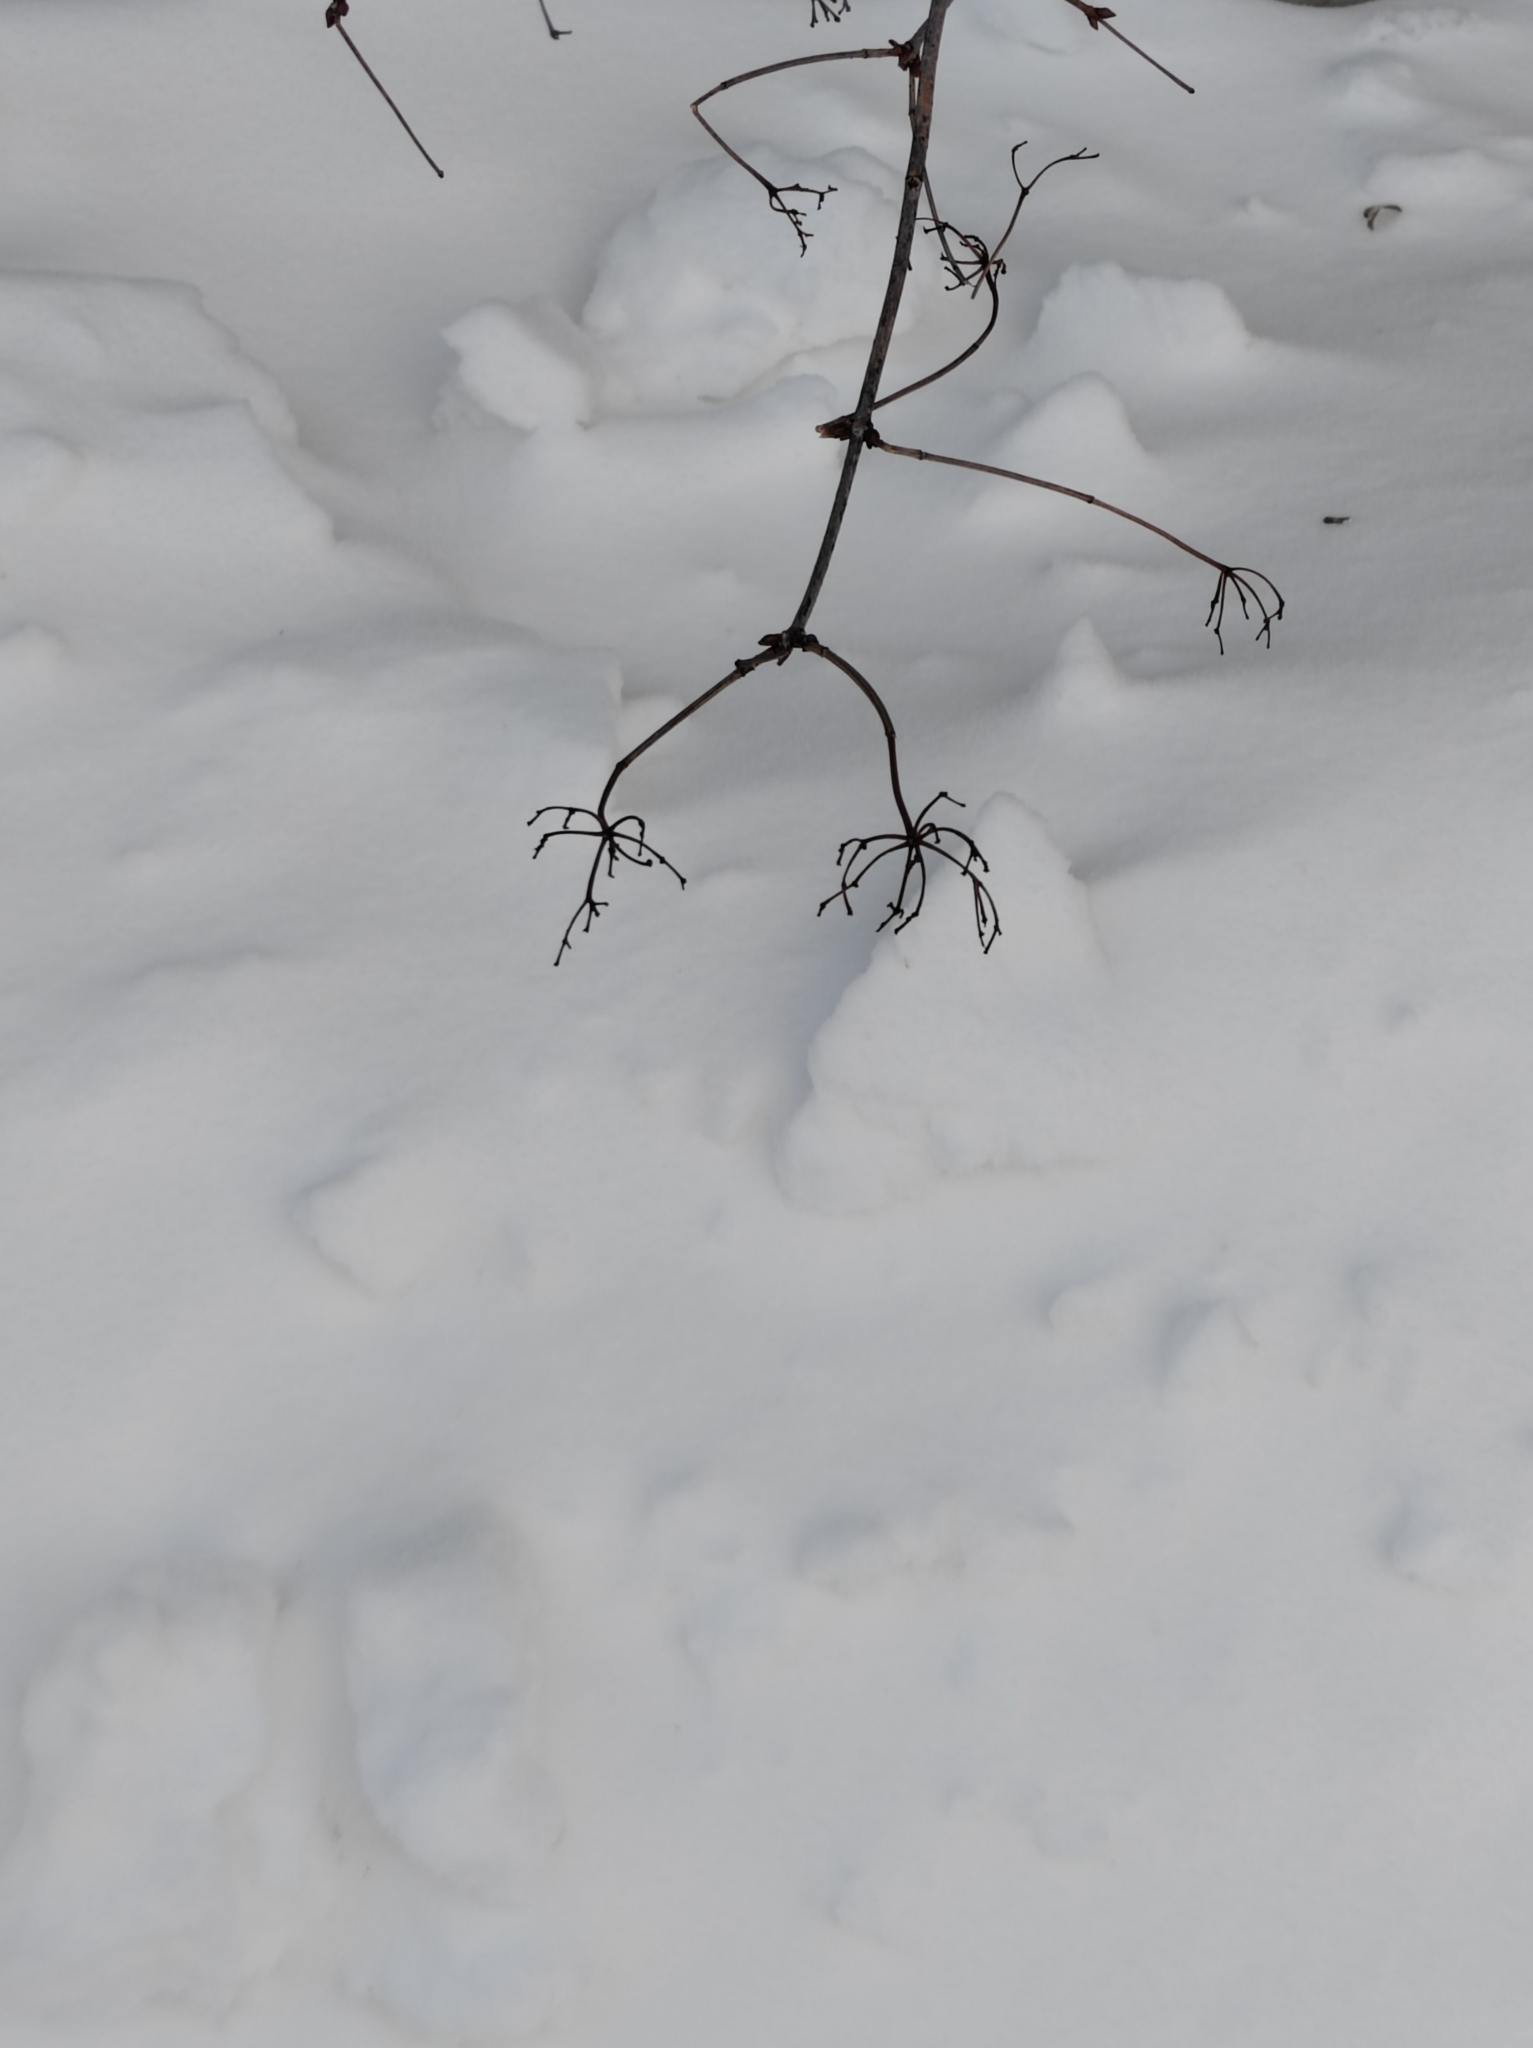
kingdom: Plantae
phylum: Tracheophyta
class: Magnoliopsida
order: Dipsacales
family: Viburnaceae
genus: Viburnum
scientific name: Viburnum opulus
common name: Guelder-rose
